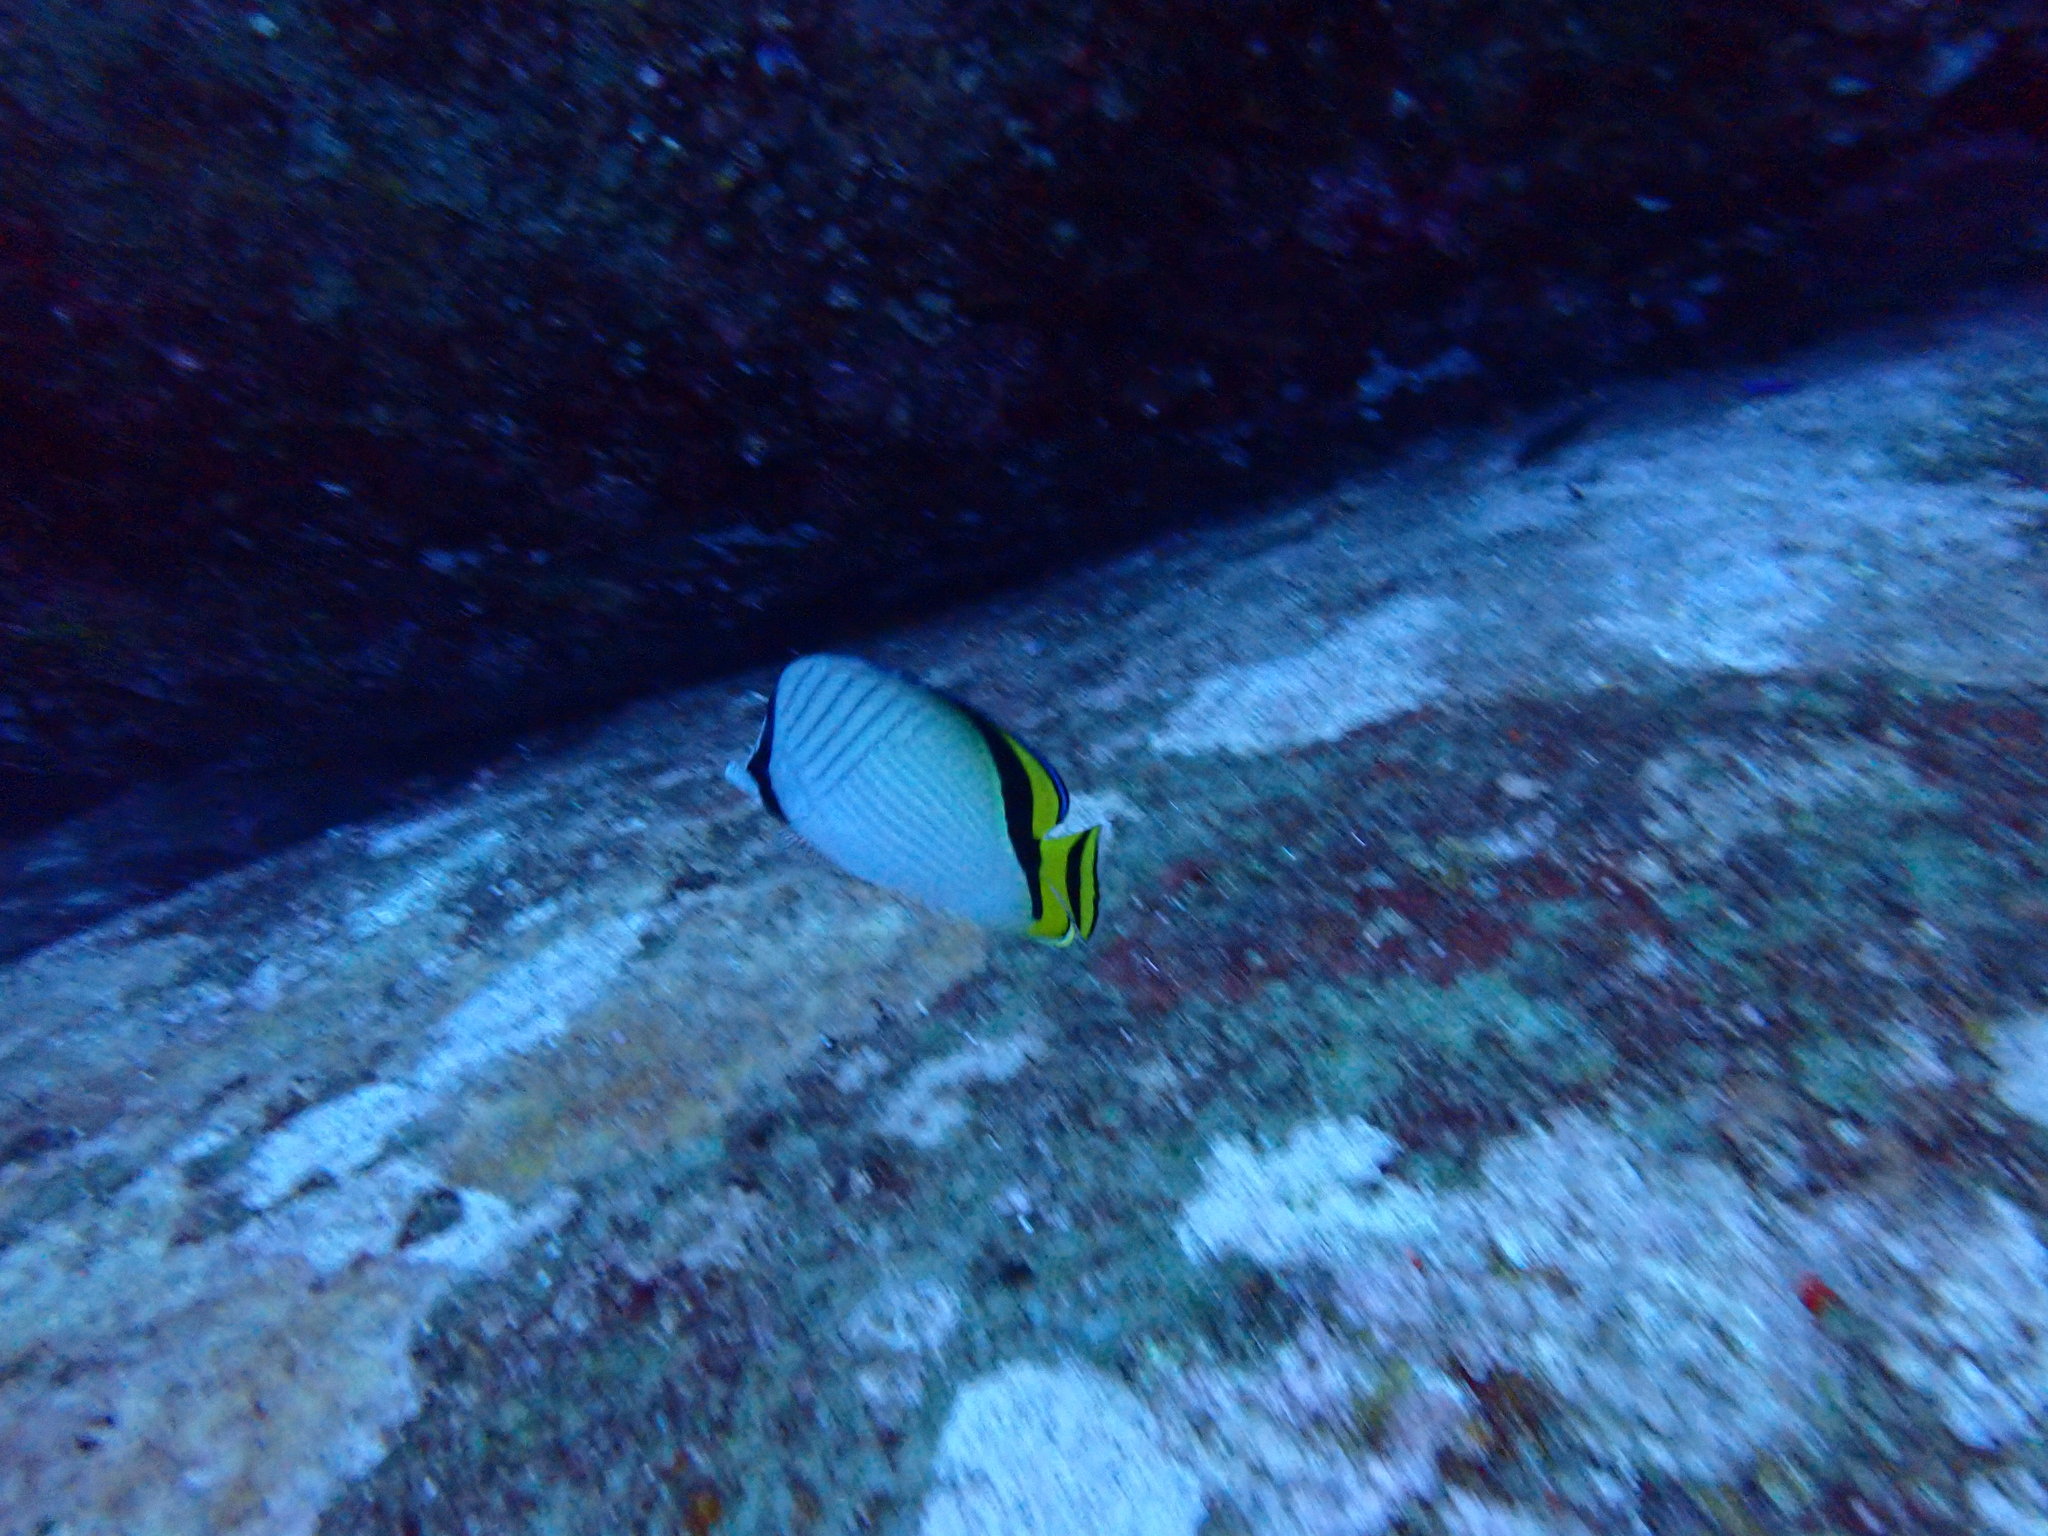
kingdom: Animalia
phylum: Chordata
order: Perciformes
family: Chaetodontidae
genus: Chaetodon
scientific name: Chaetodon vagabundus
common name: Vagabond butterflyfish
